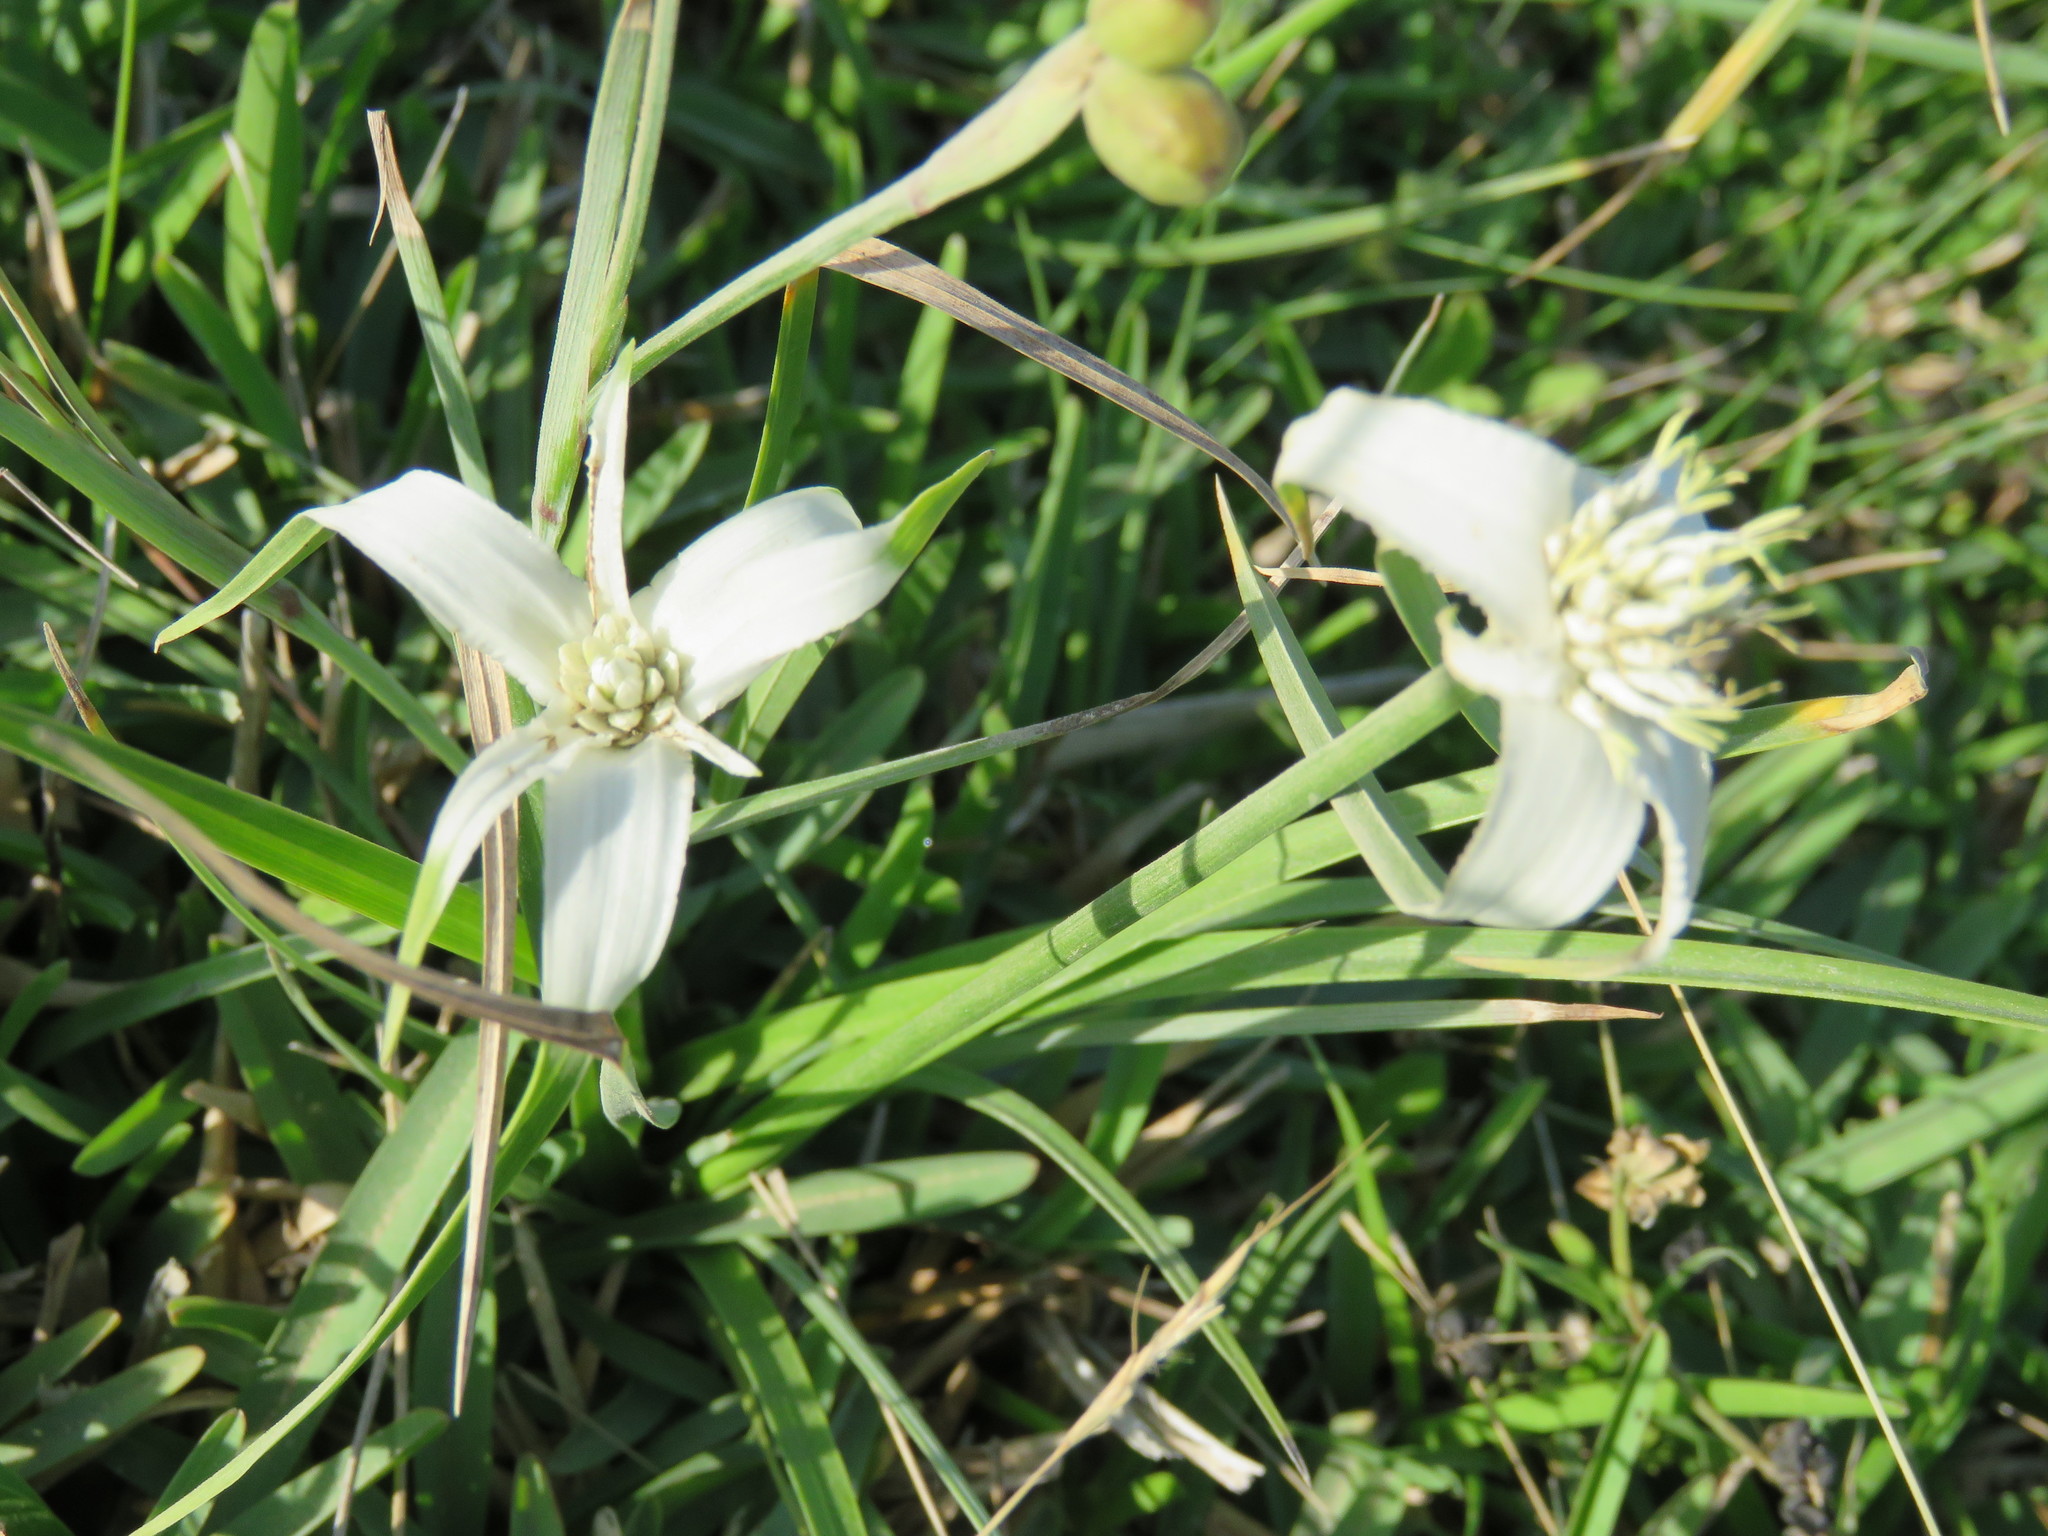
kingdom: Plantae
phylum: Tracheophyta
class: Liliopsida
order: Poales
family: Cyperaceae
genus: Rhynchospora
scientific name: Rhynchospora colorata
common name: Star sedge
